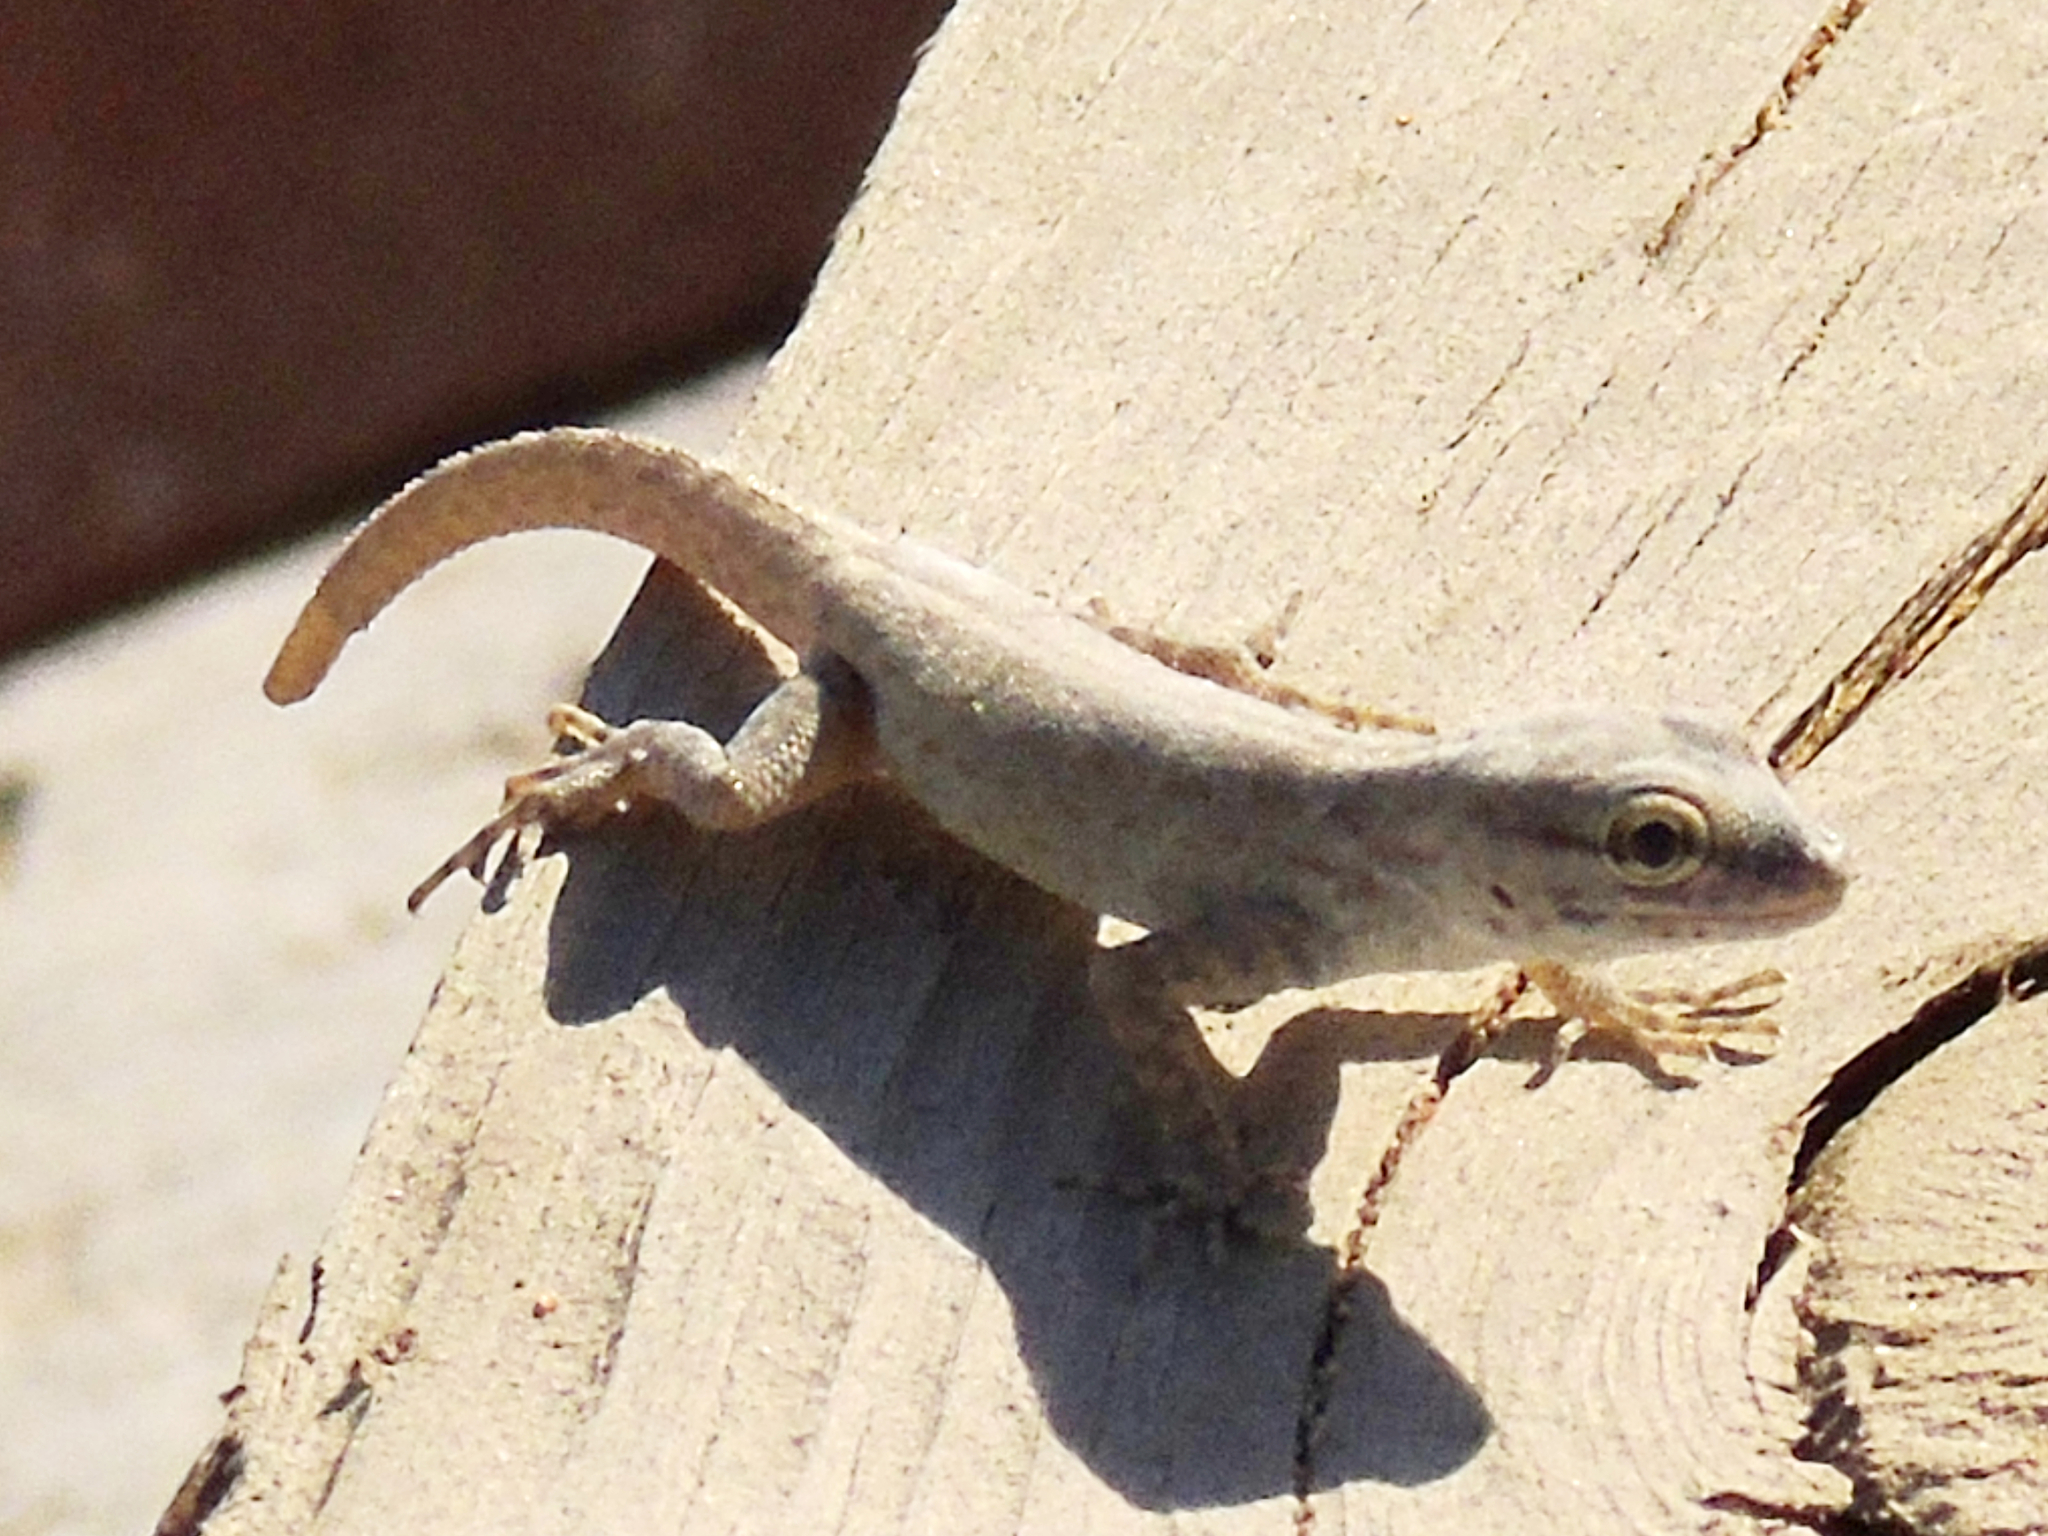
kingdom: Animalia
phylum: Chordata
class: Squamata
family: Sphaerodactylidae
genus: Pristurus
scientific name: Pristurus rupestris
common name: Blanford’s semaphore gecko
